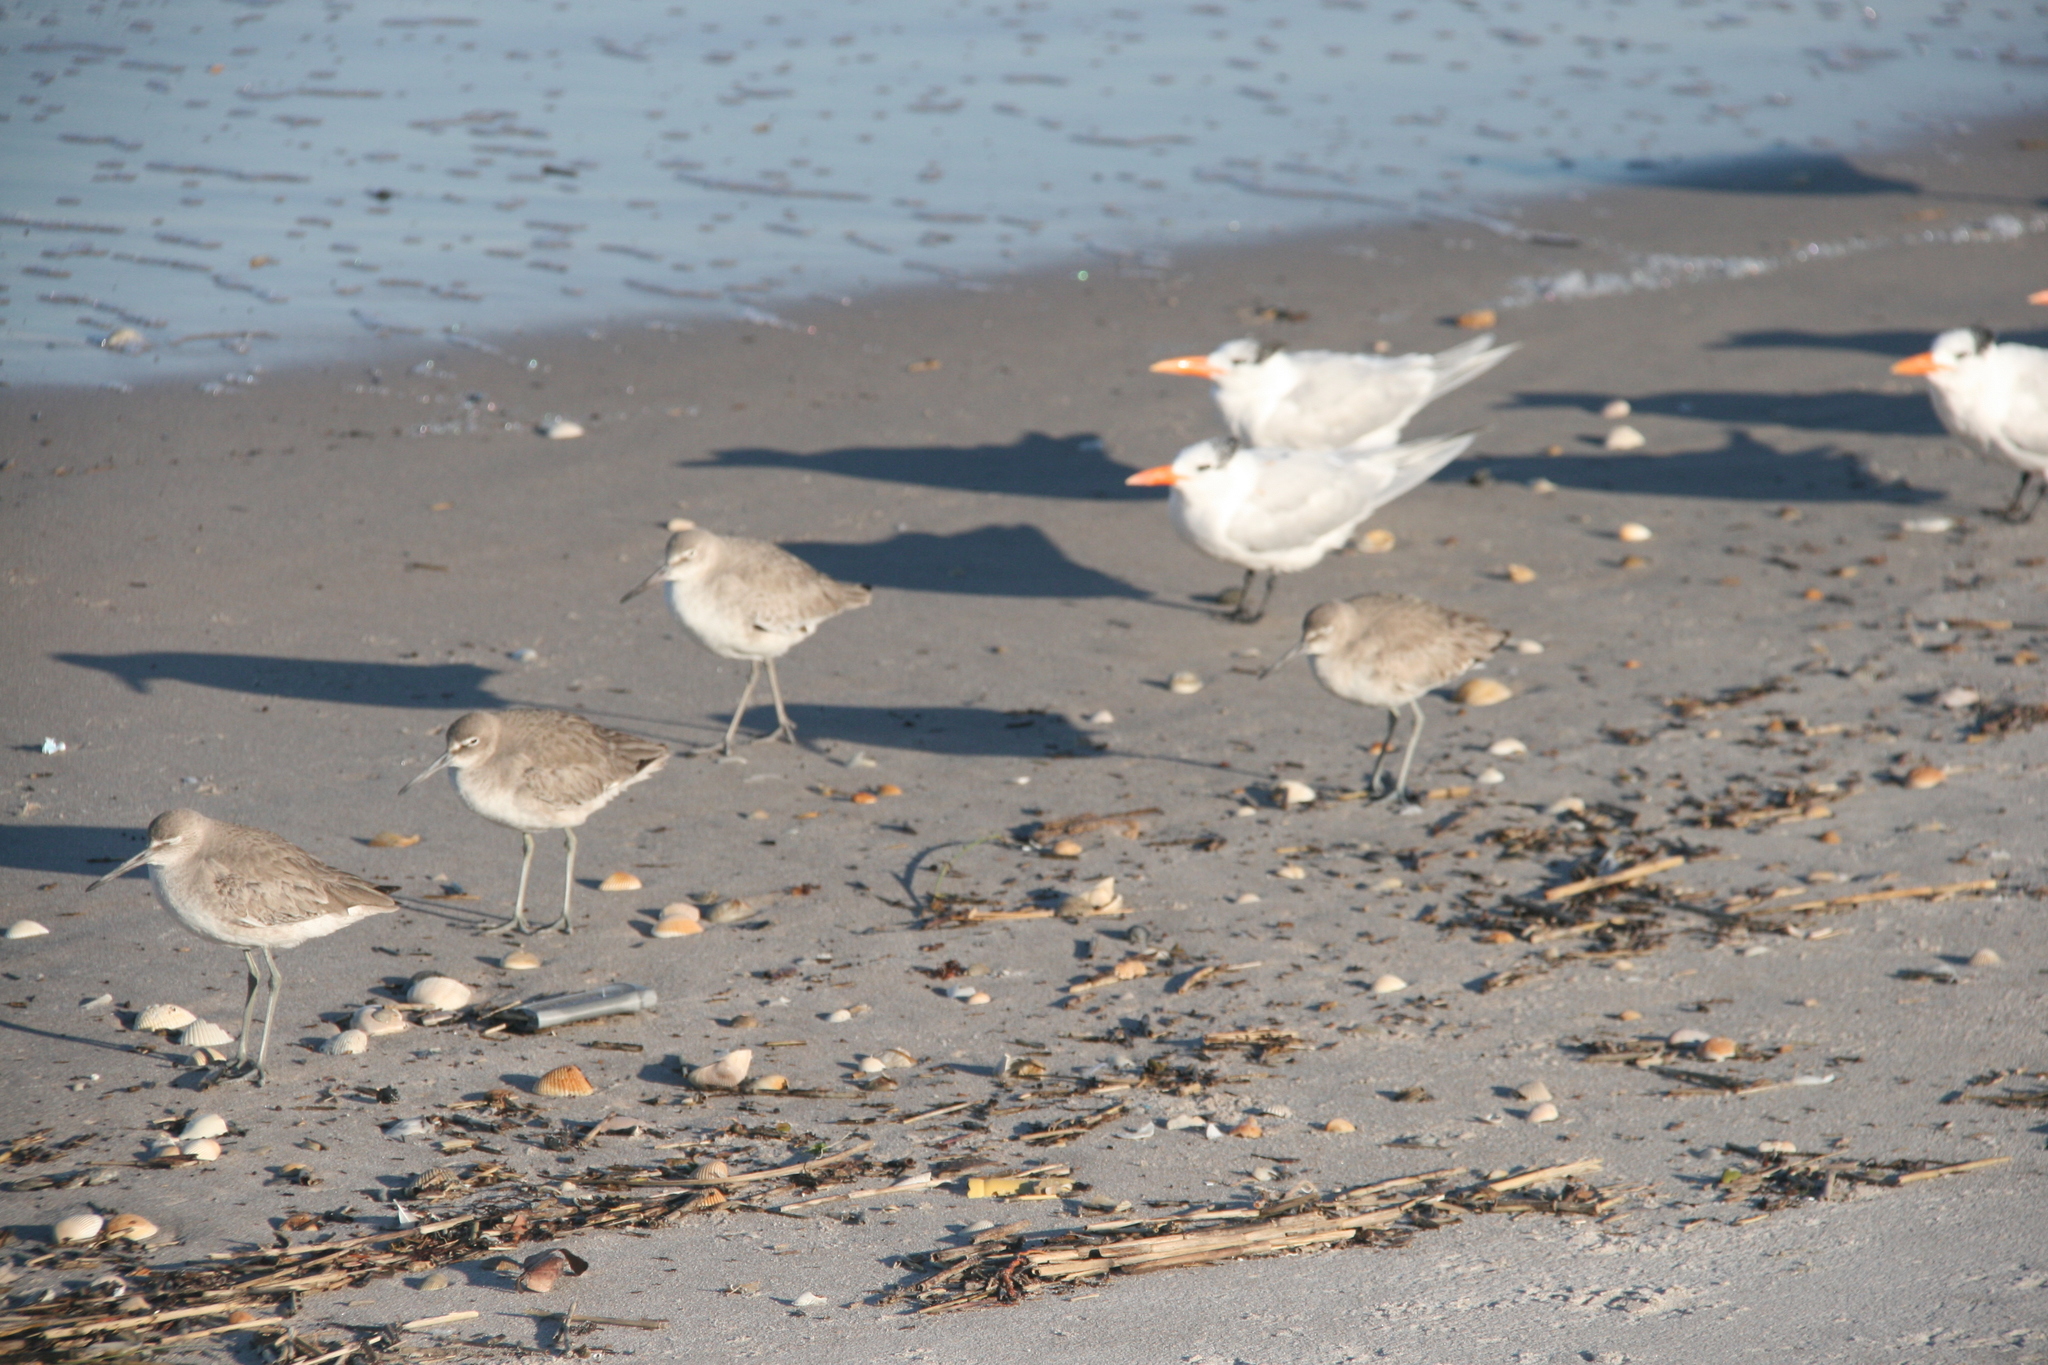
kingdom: Animalia
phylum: Chordata
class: Aves
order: Charadriiformes
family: Scolopacidae
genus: Tringa
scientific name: Tringa semipalmata
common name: Willet
